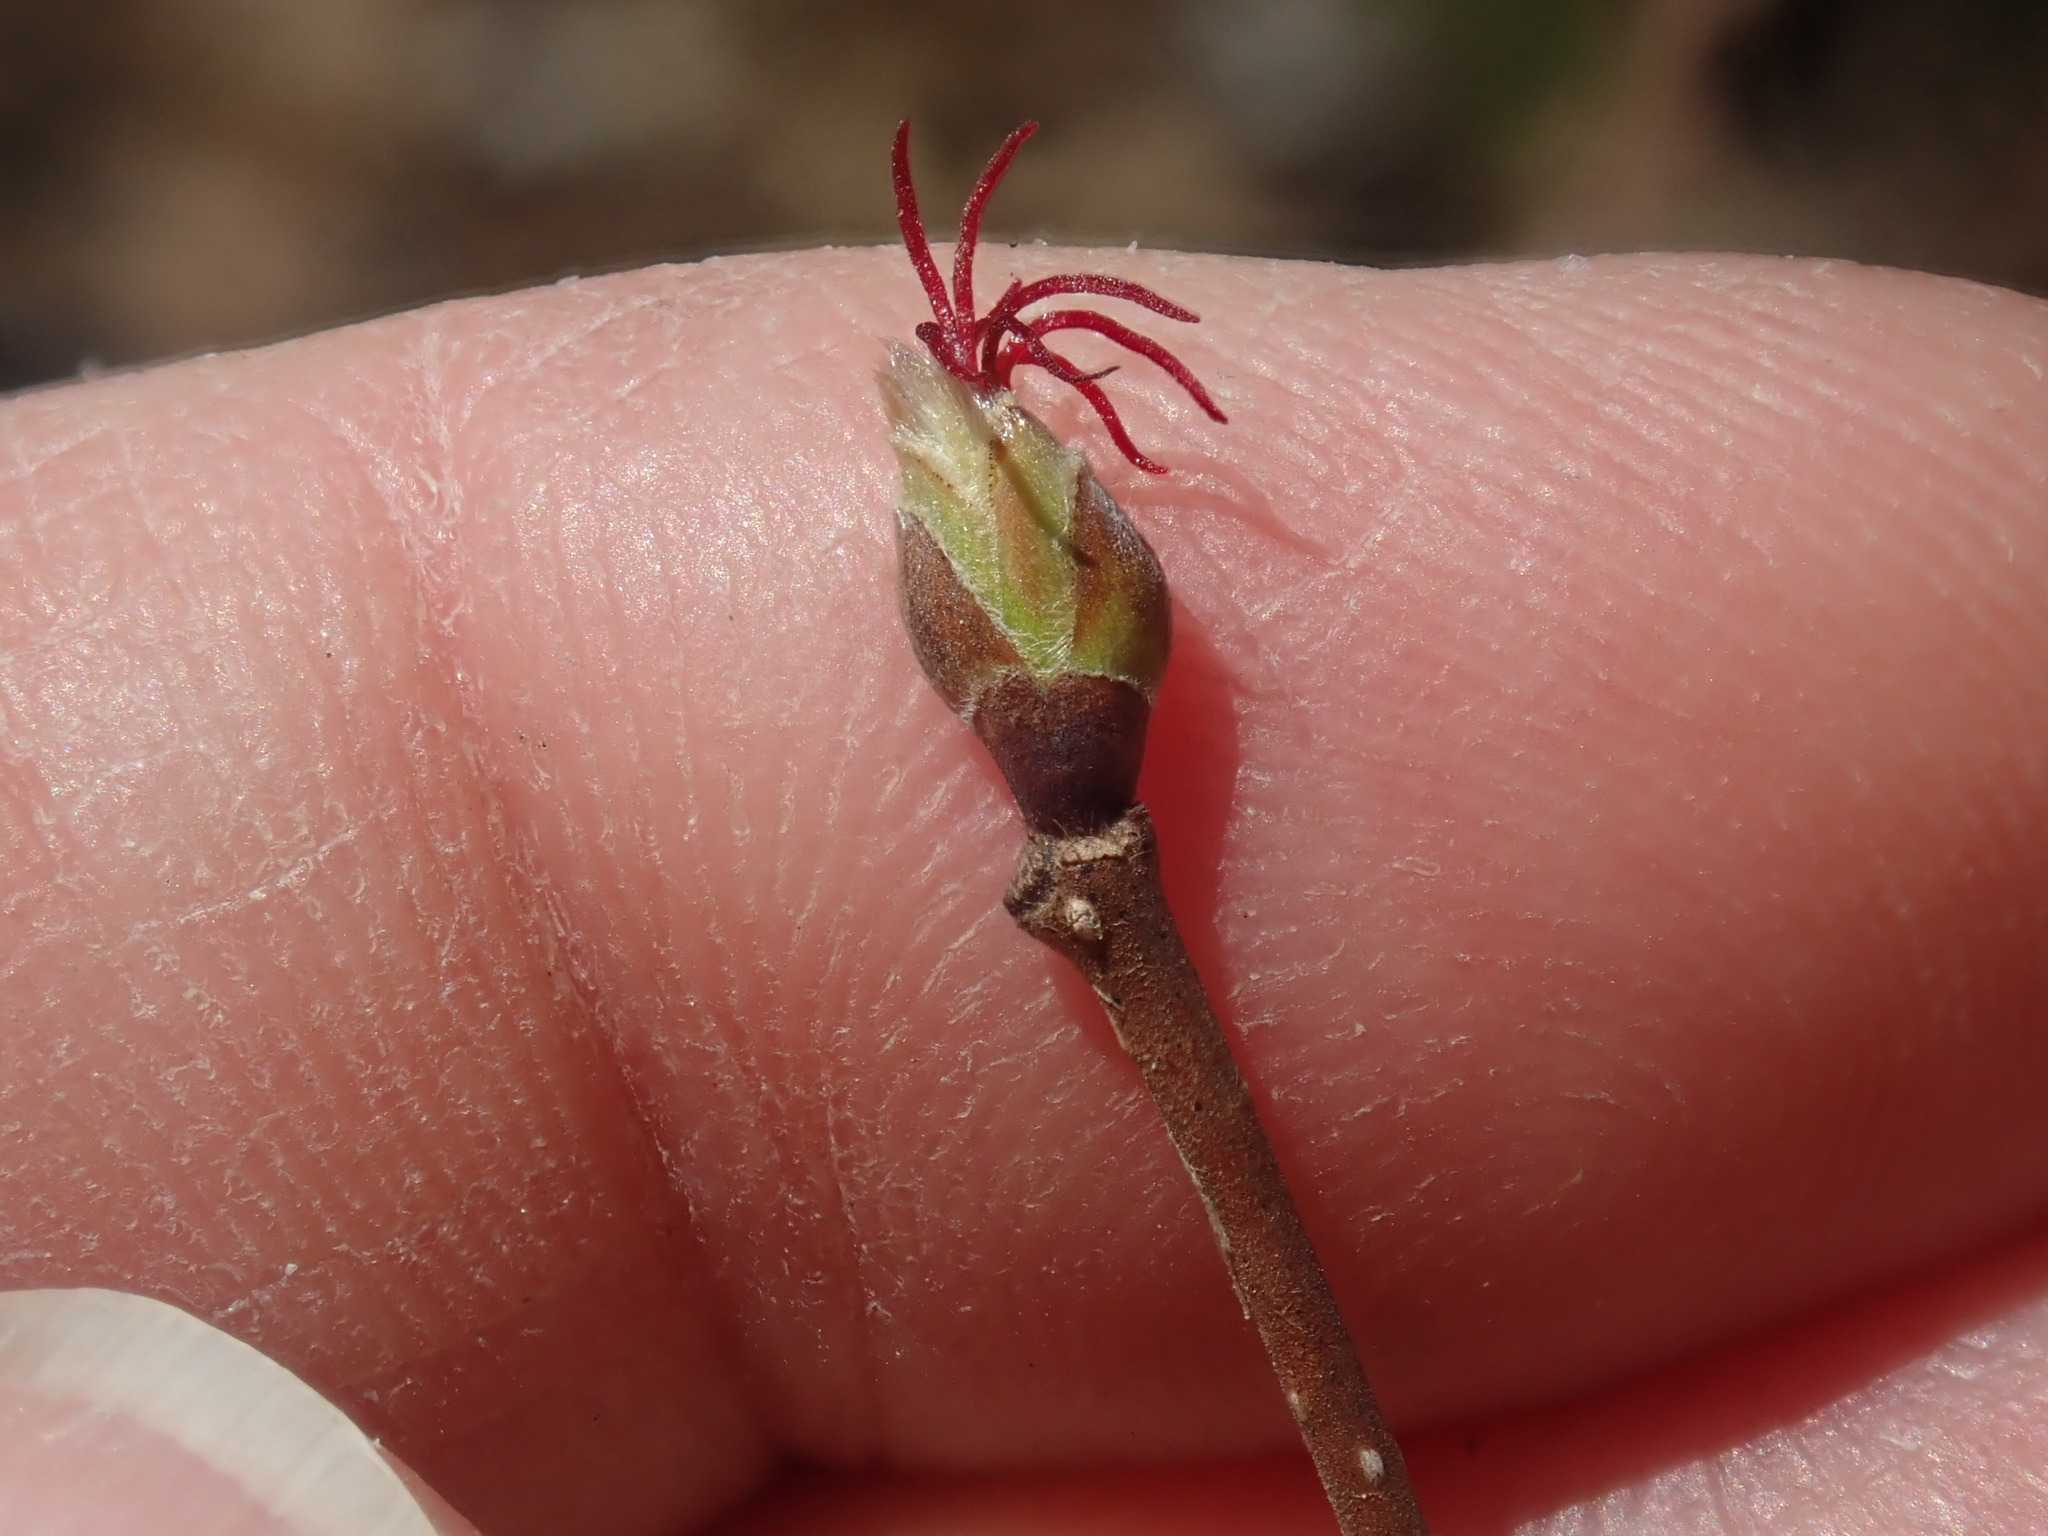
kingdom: Plantae
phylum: Tracheophyta
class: Magnoliopsida
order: Fagales
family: Betulaceae
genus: Corylus
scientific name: Corylus cornuta
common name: Beaked hazel
